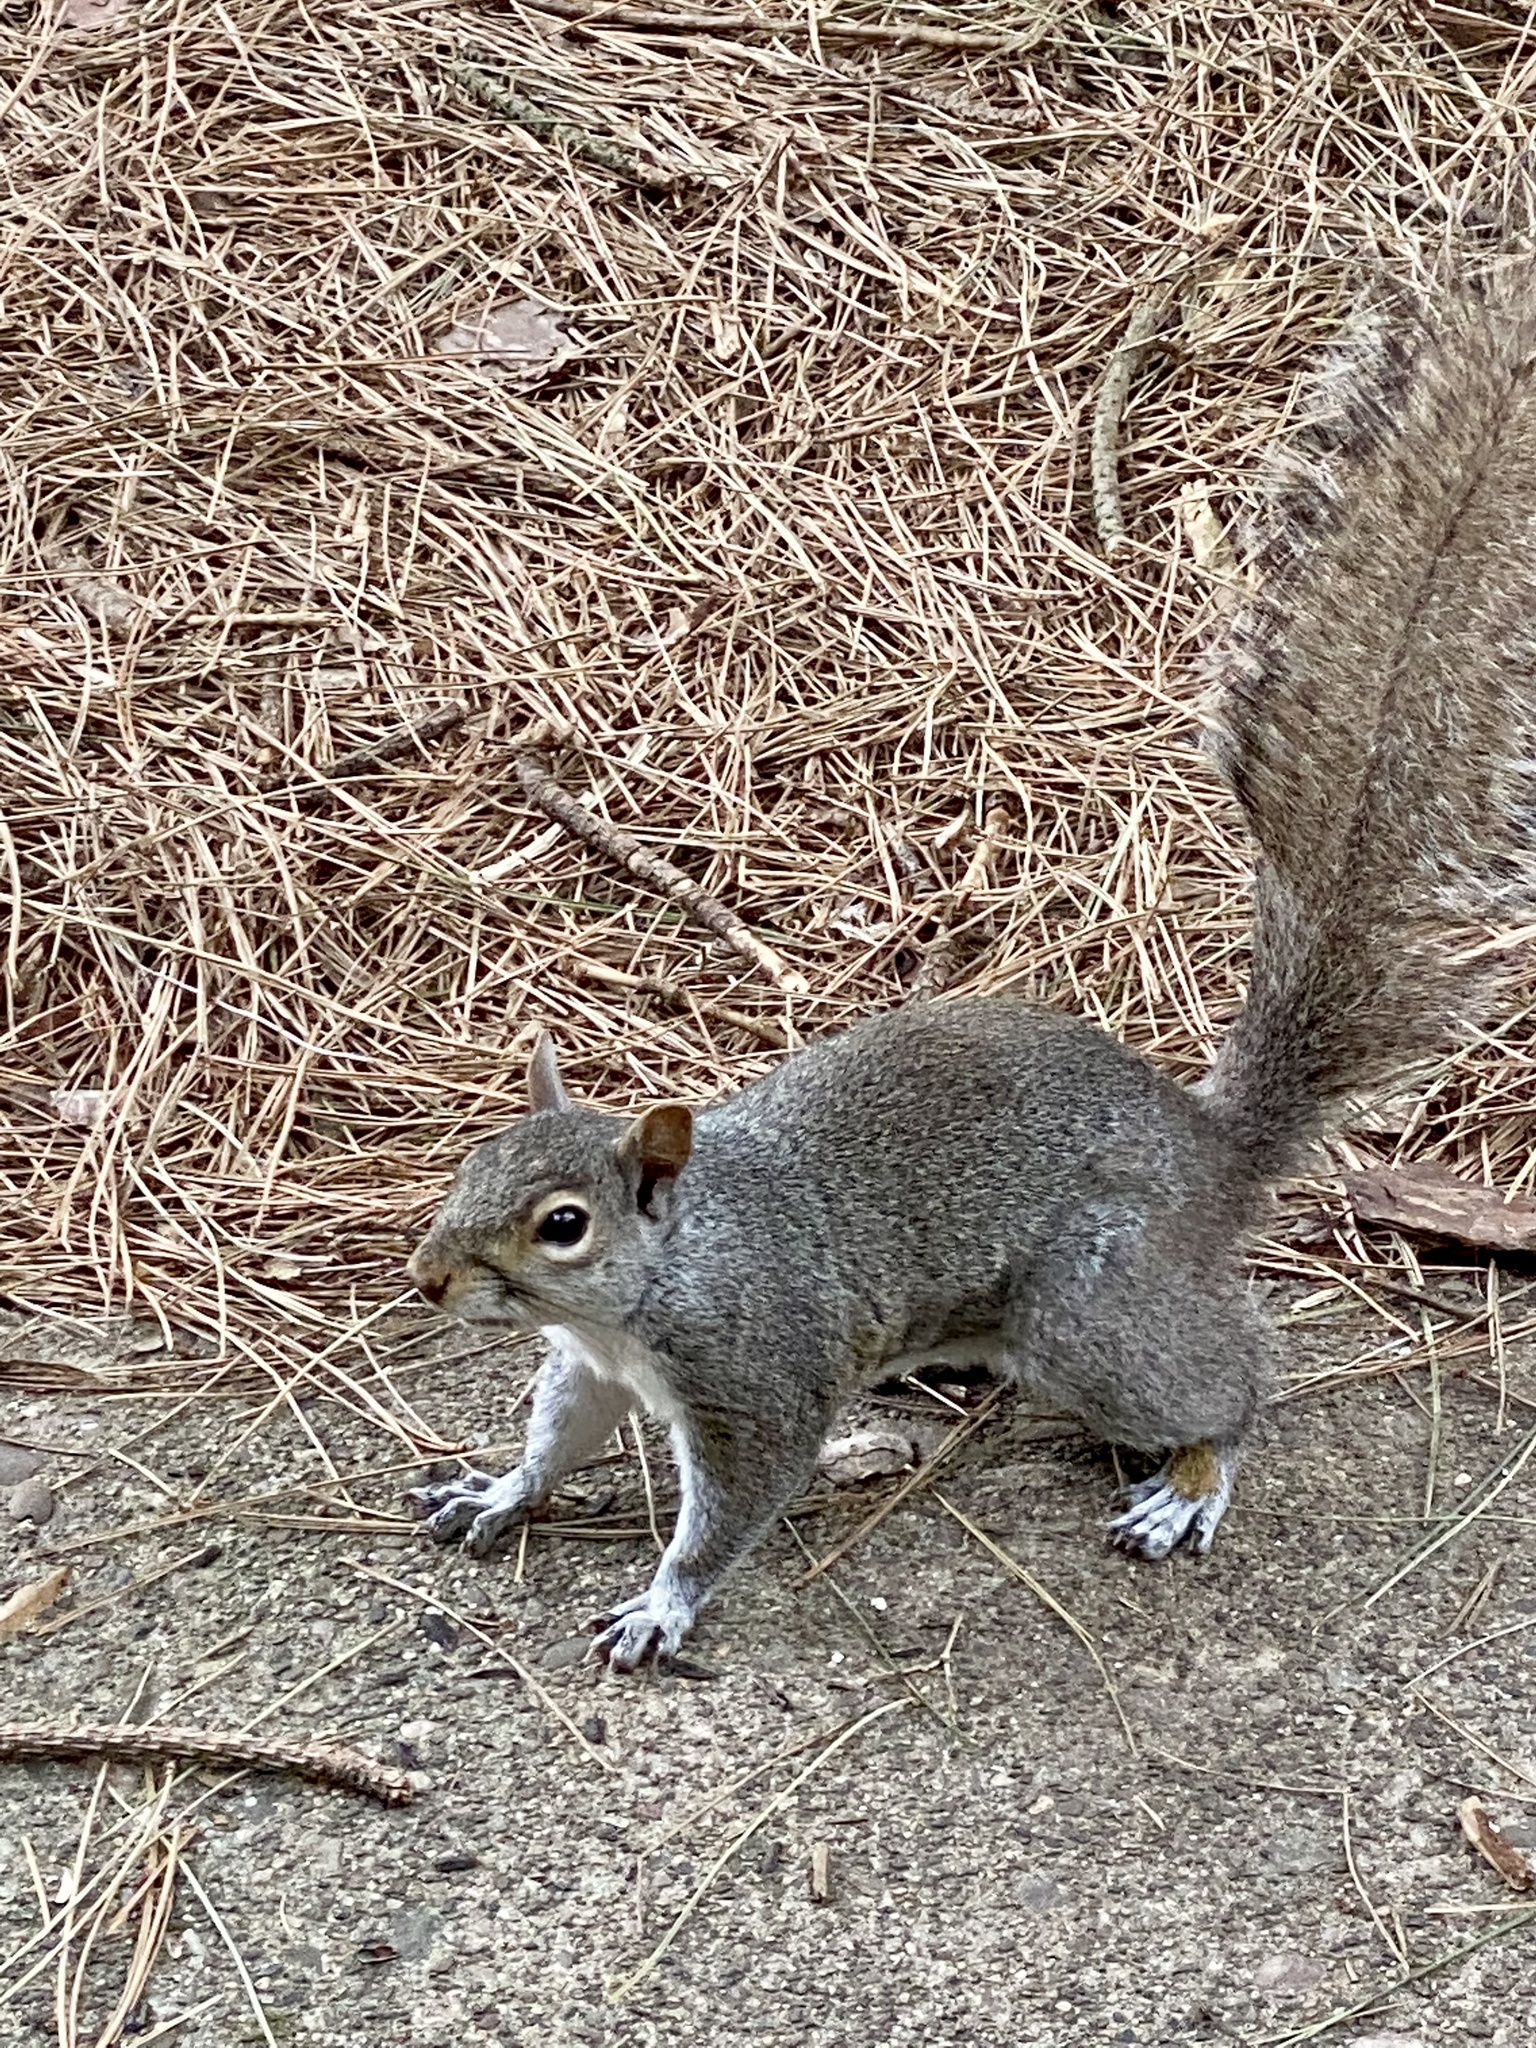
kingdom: Animalia
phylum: Chordata
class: Mammalia
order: Rodentia
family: Sciuridae
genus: Sciurus
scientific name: Sciurus carolinensis
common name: Eastern gray squirrel
